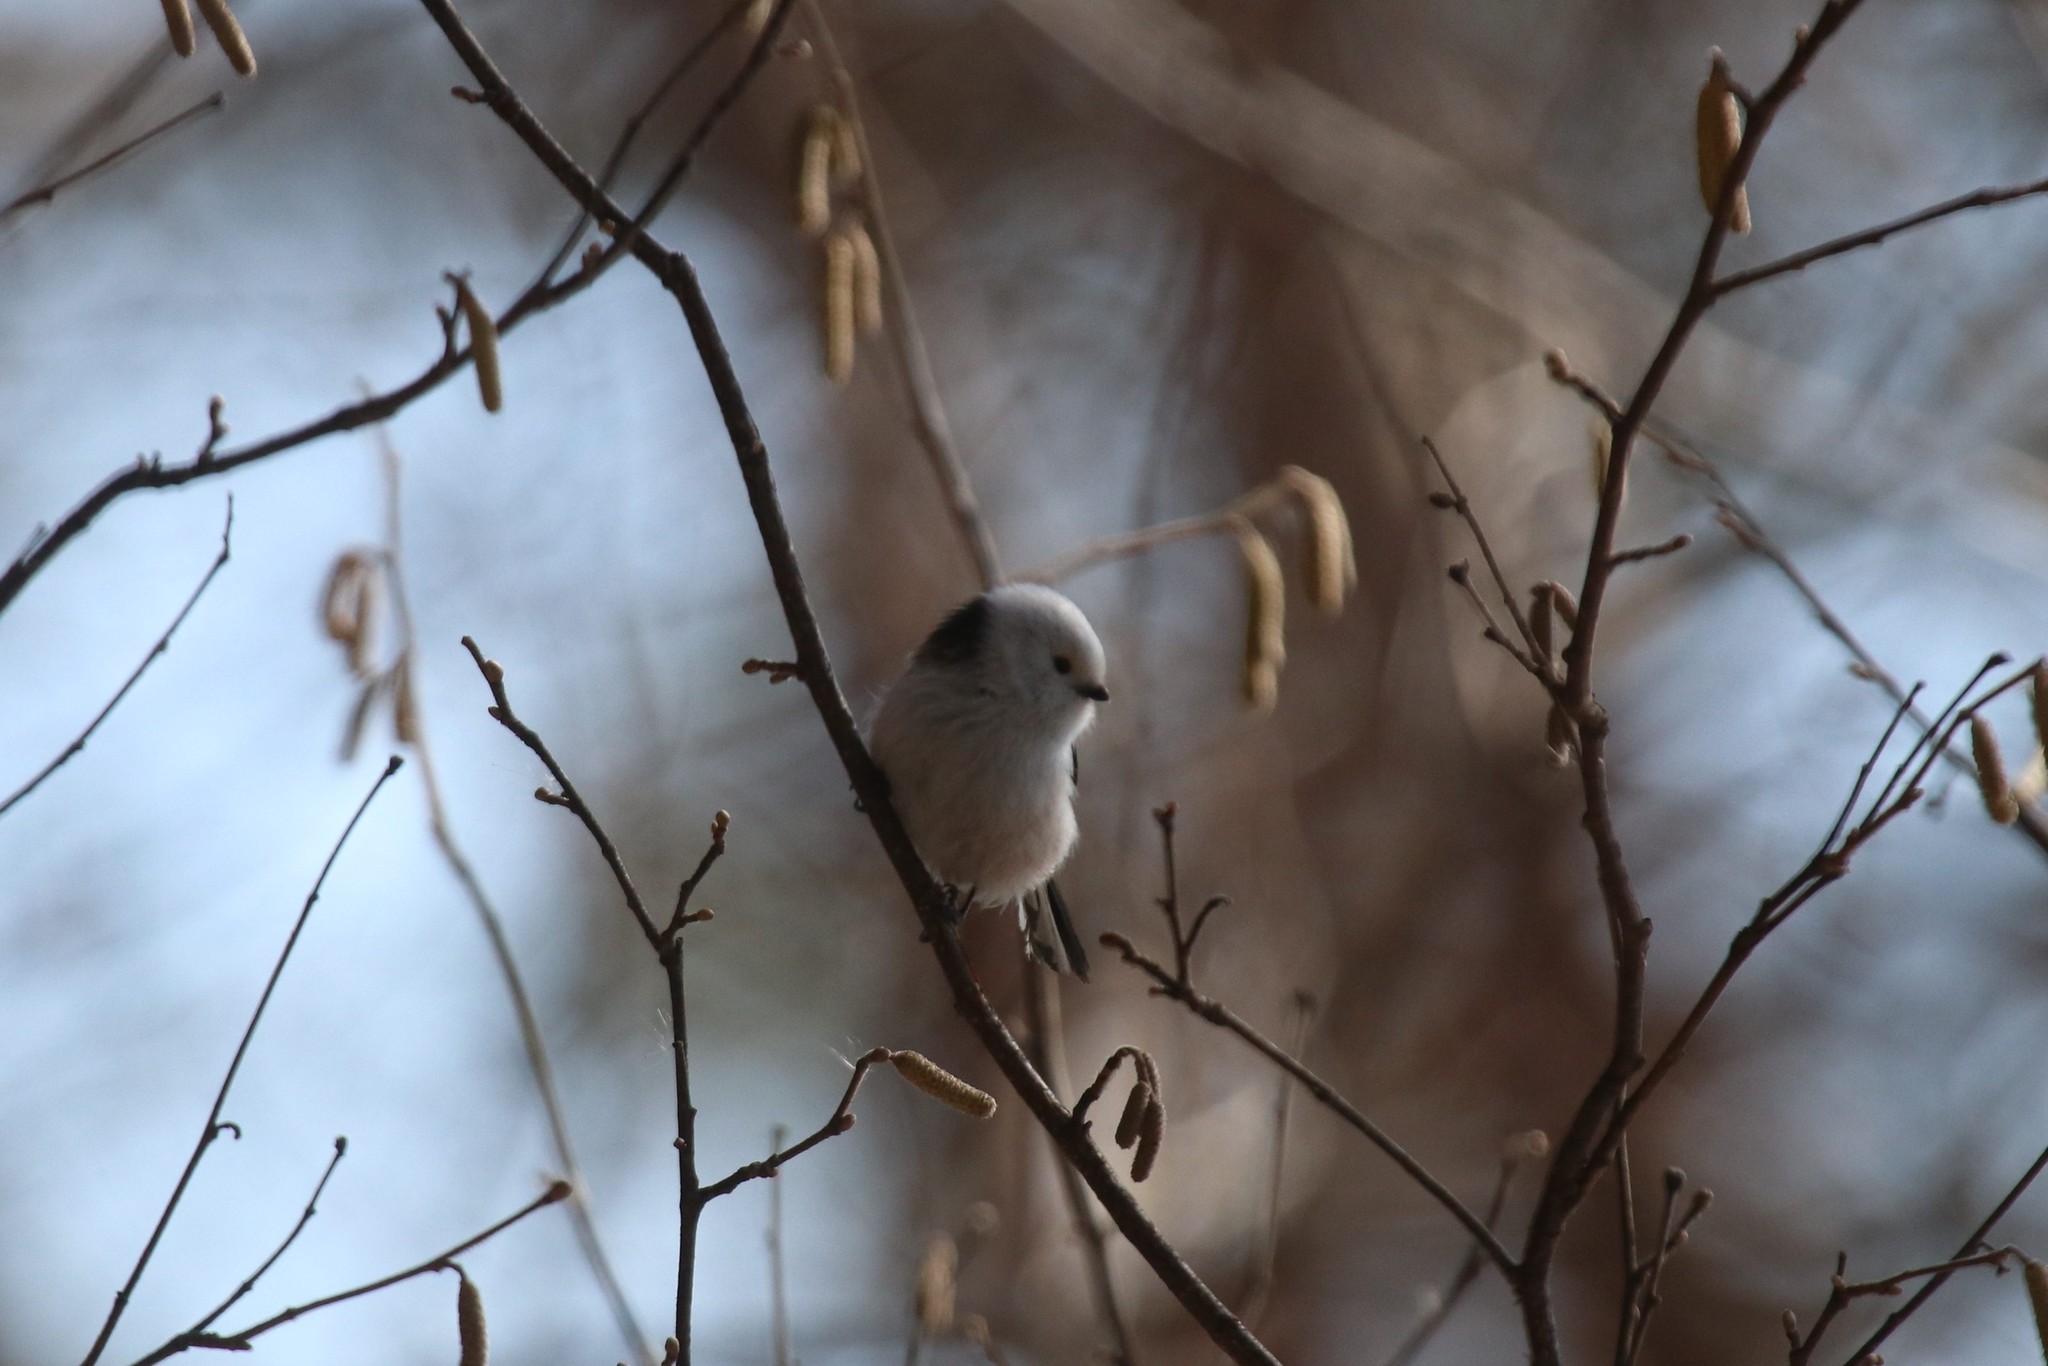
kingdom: Animalia
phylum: Chordata
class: Aves
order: Passeriformes
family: Aegithalidae
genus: Aegithalos
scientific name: Aegithalos caudatus
